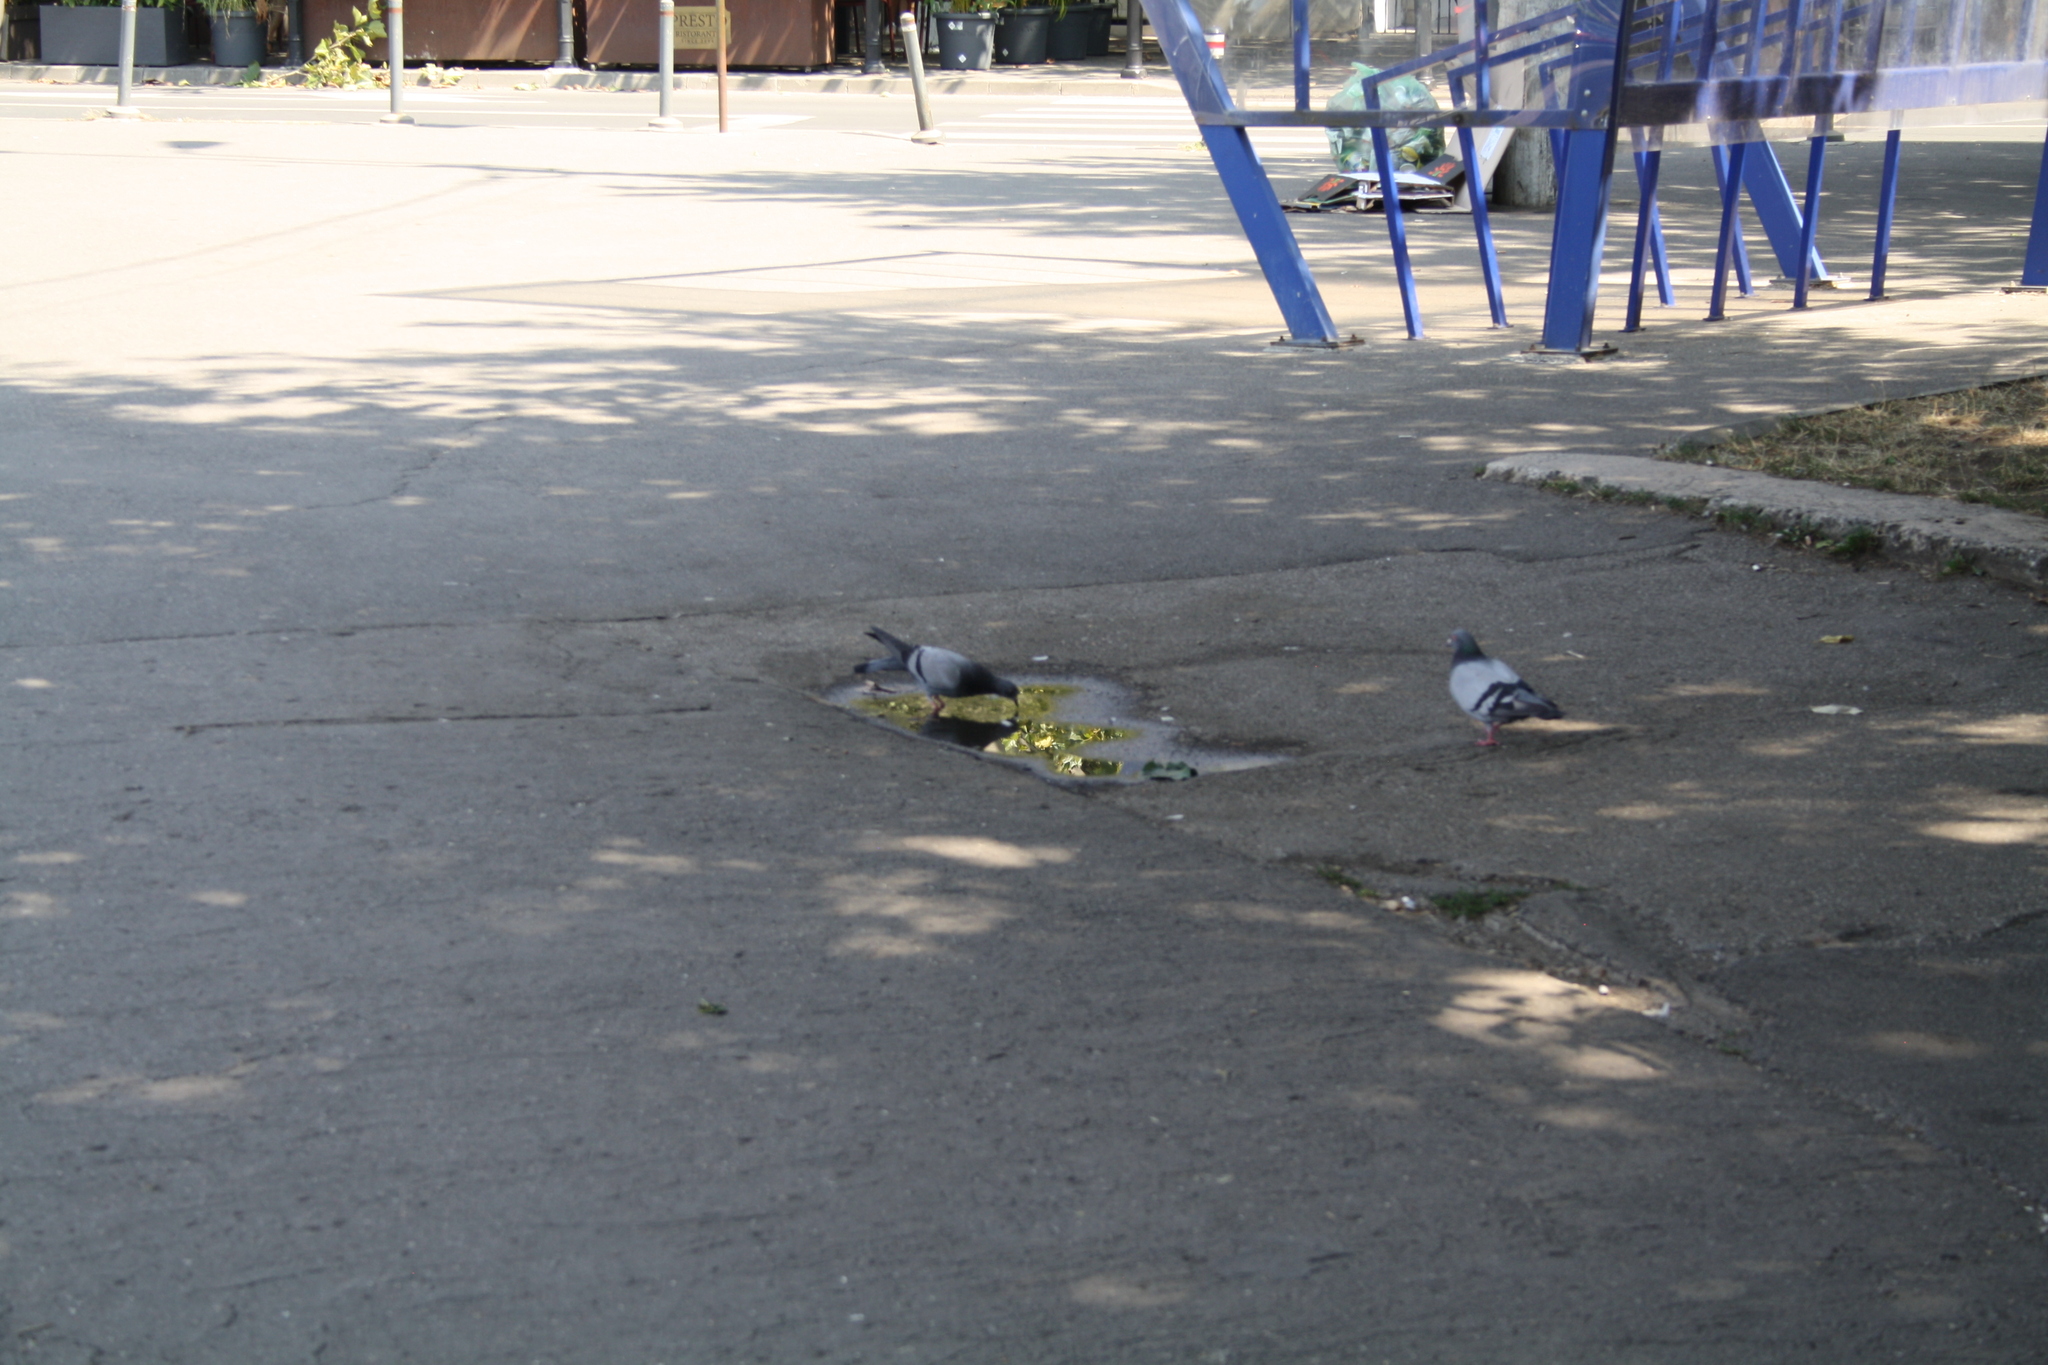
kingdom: Animalia
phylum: Chordata
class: Aves
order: Columbiformes
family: Columbidae
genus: Columba
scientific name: Columba livia
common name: Rock pigeon
